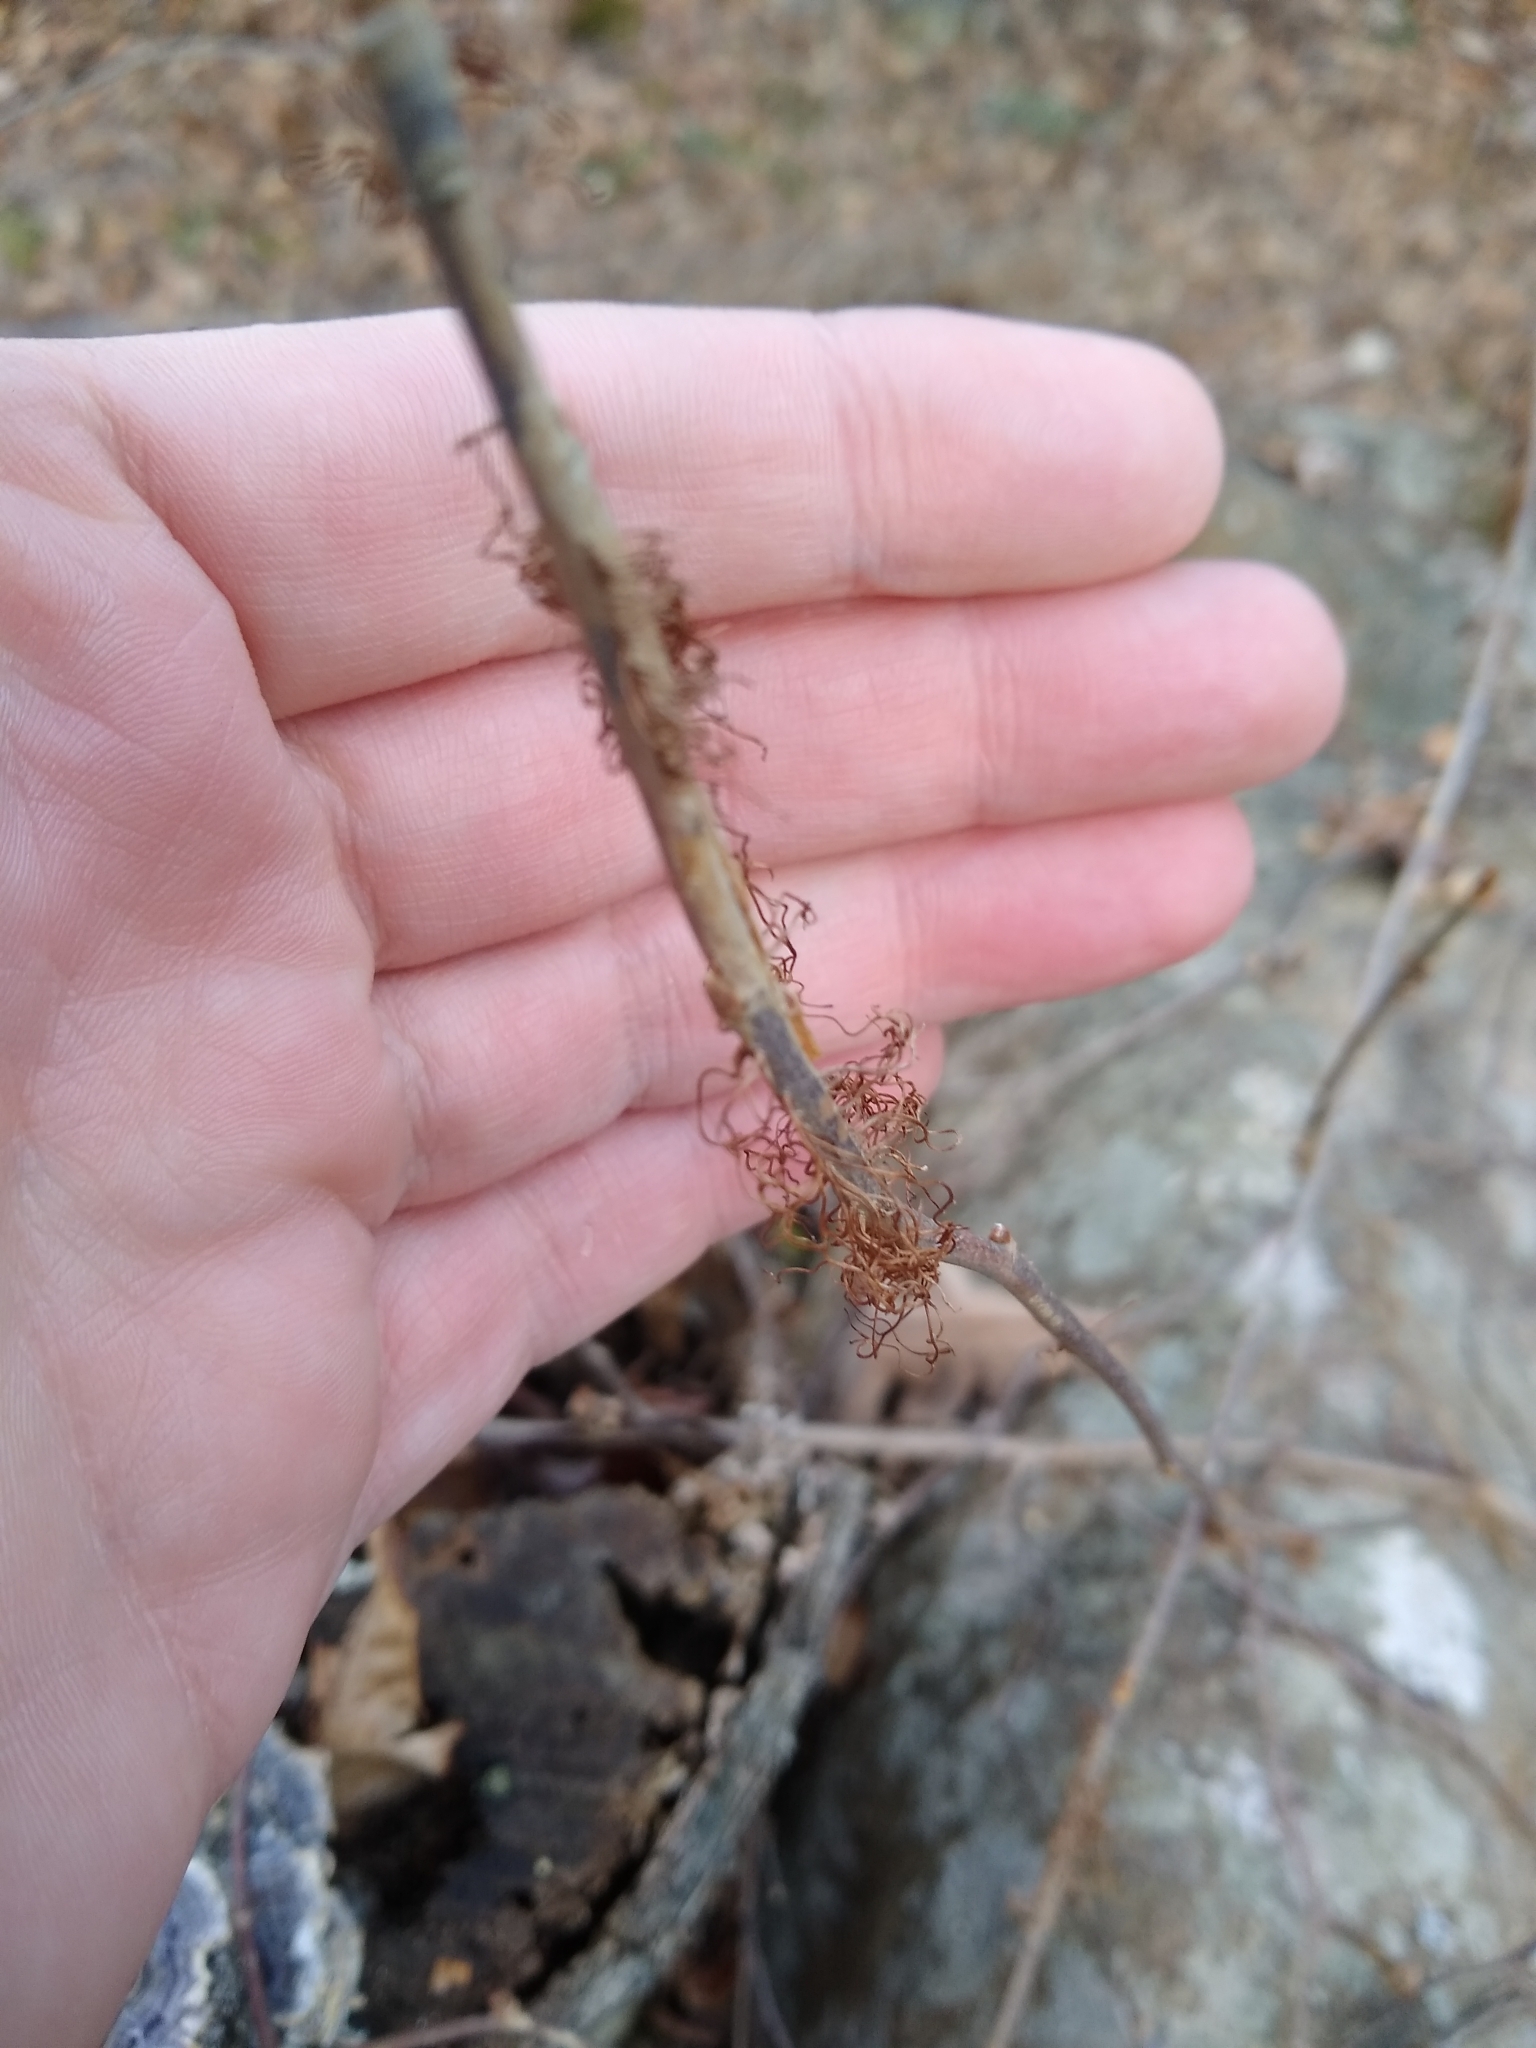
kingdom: Plantae
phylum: Tracheophyta
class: Magnoliopsida
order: Sapindales
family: Anacardiaceae
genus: Toxicodendron
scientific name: Toxicodendron radicans
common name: Poison ivy
